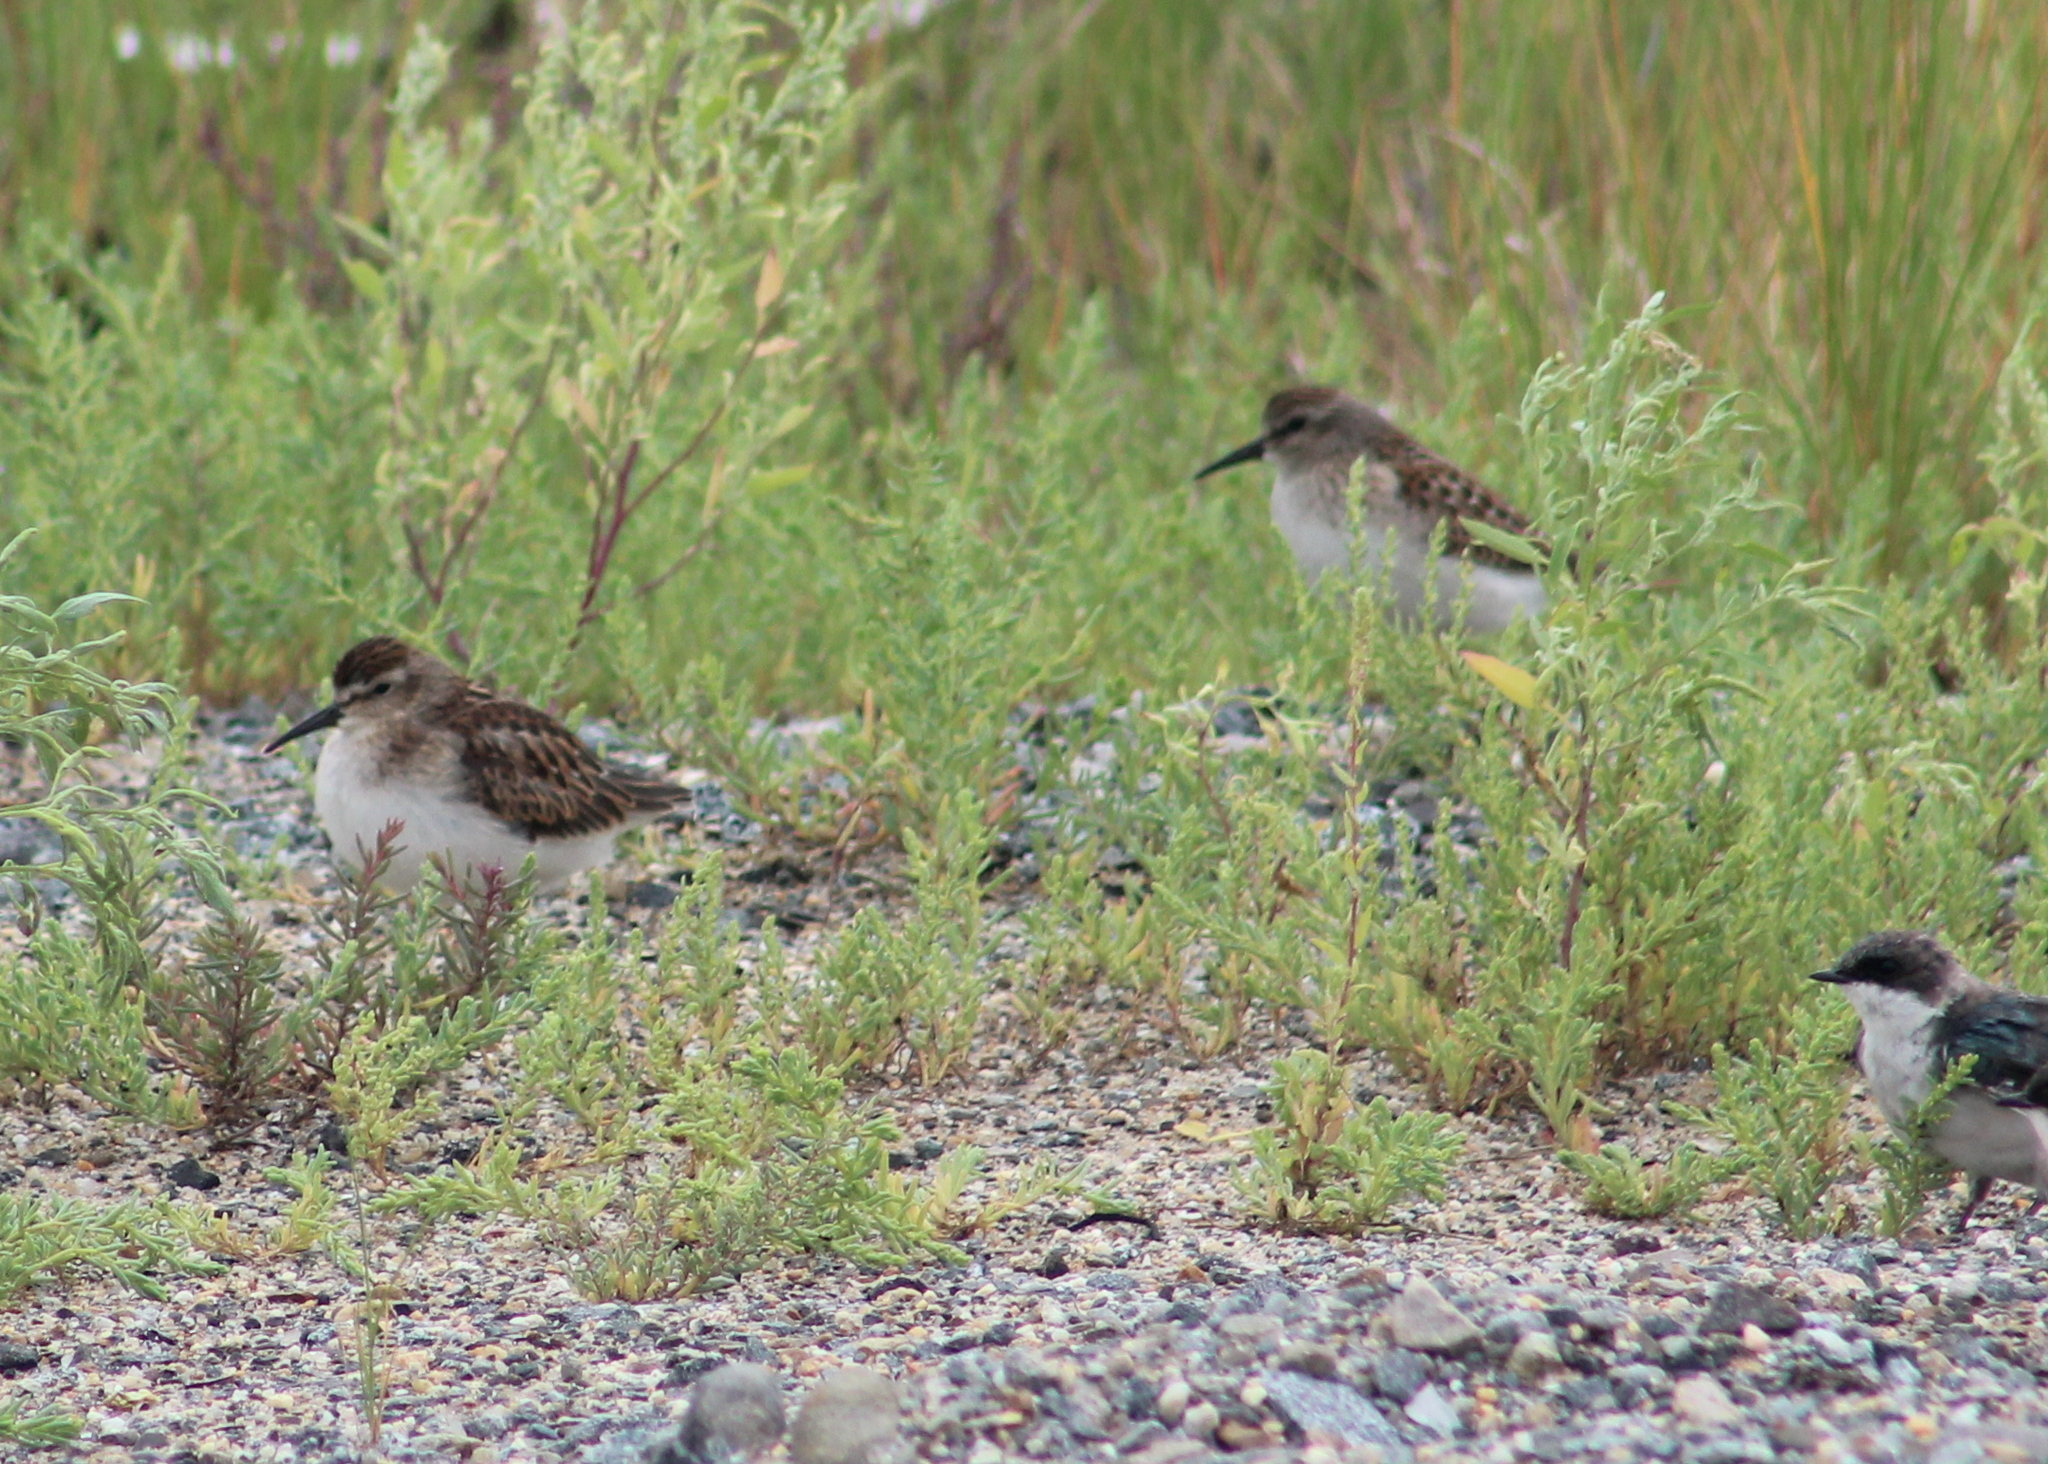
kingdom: Animalia
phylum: Chordata
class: Aves
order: Charadriiformes
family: Scolopacidae
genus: Calidris
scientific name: Calidris minutilla
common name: Least sandpiper
